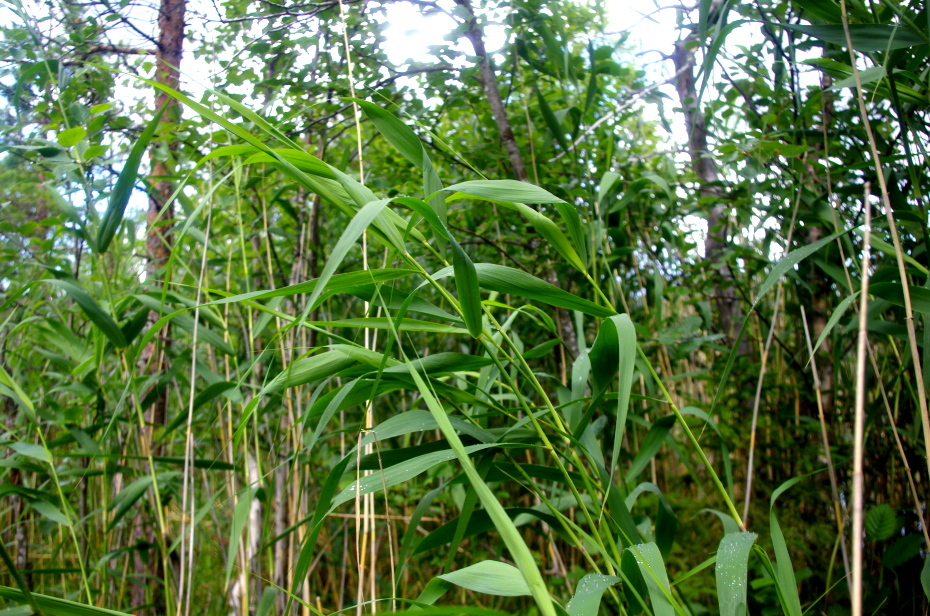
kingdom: Plantae
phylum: Tracheophyta
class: Liliopsida
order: Poales
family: Poaceae
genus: Phragmites
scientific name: Phragmites australis
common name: Common reed
